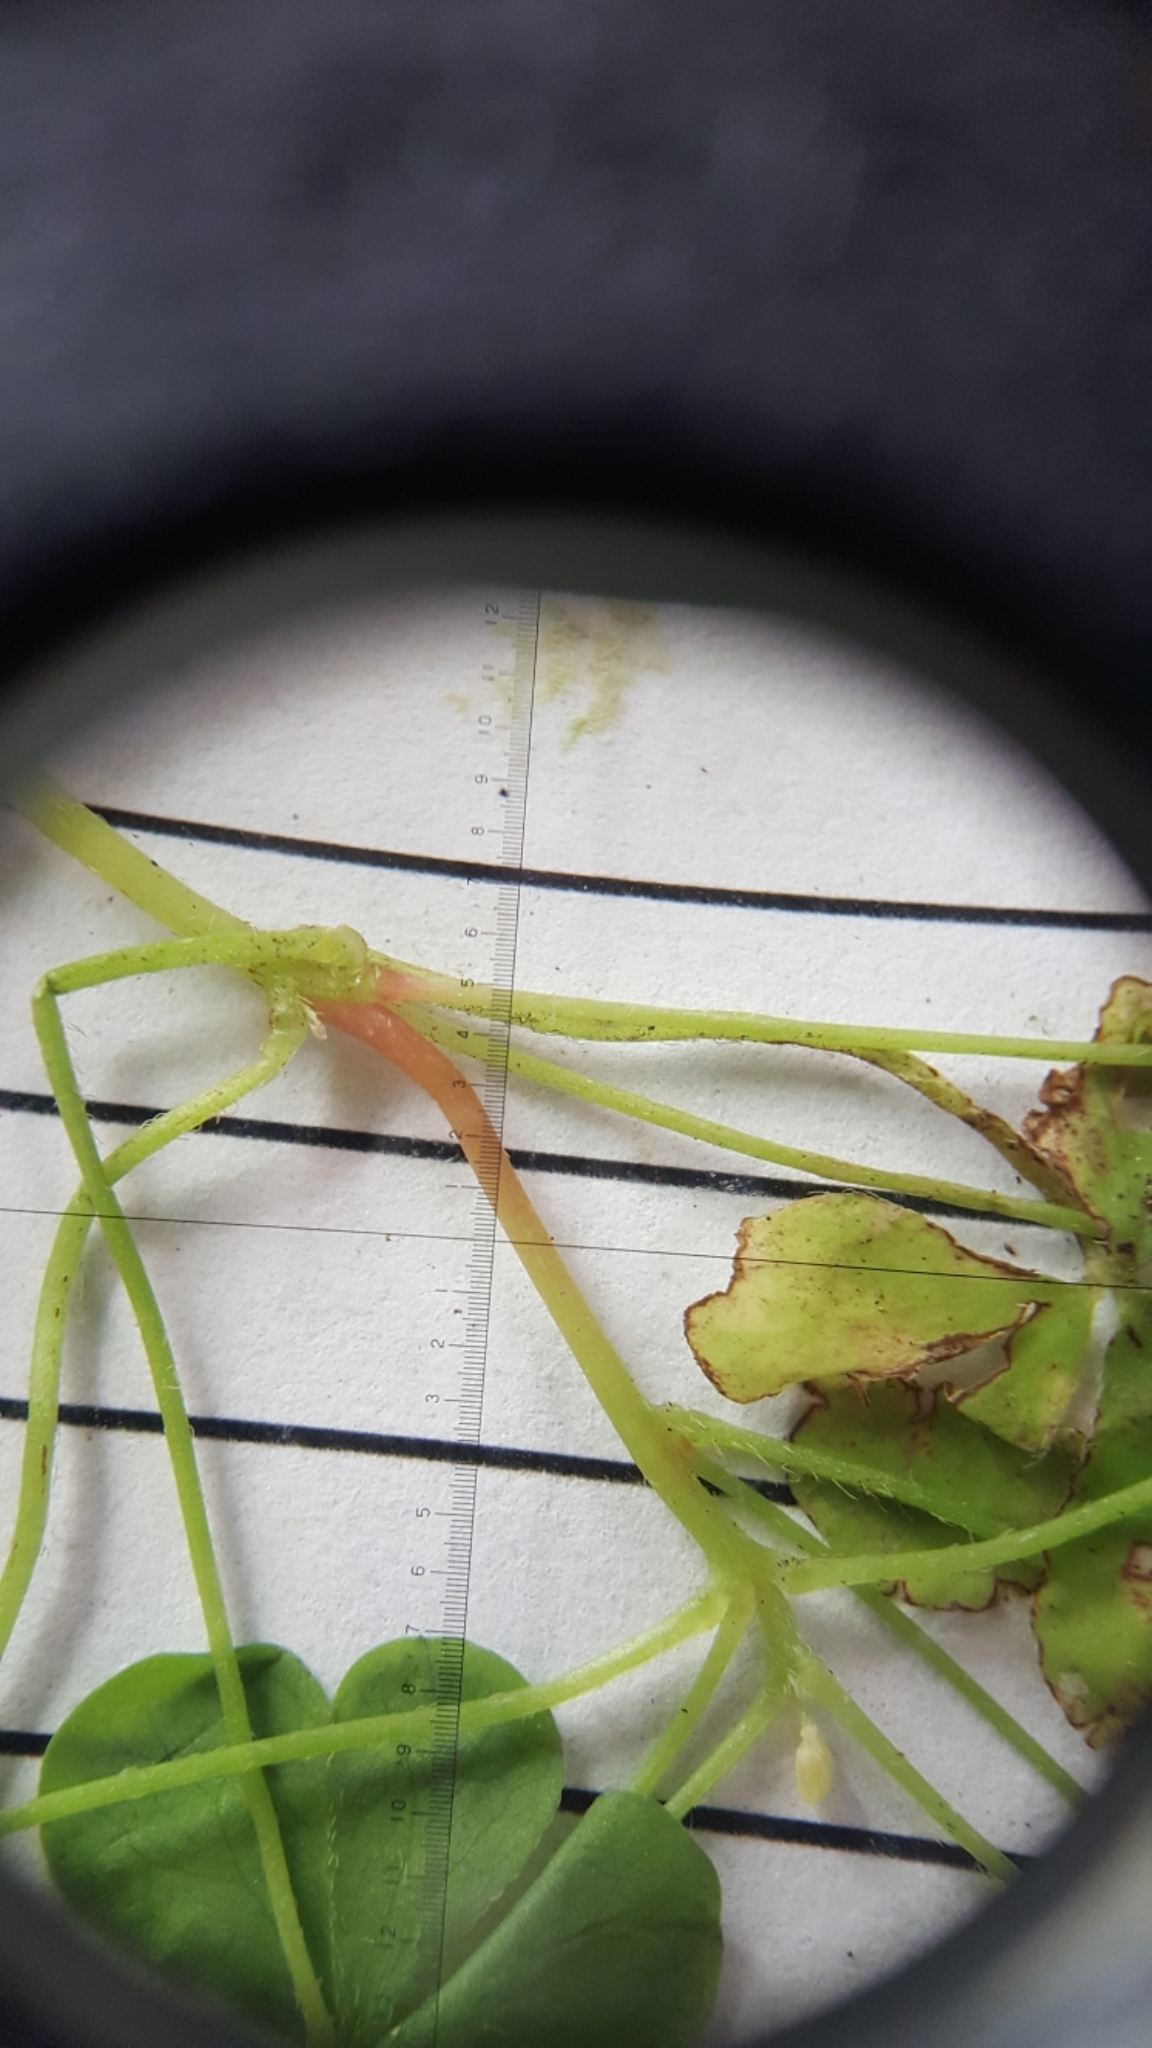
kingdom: Plantae
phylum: Tracheophyta
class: Magnoliopsida
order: Oxalidales
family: Oxalidaceae
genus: Oxalis
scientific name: Oxalis stricta
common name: Upright yellow-sorrel
